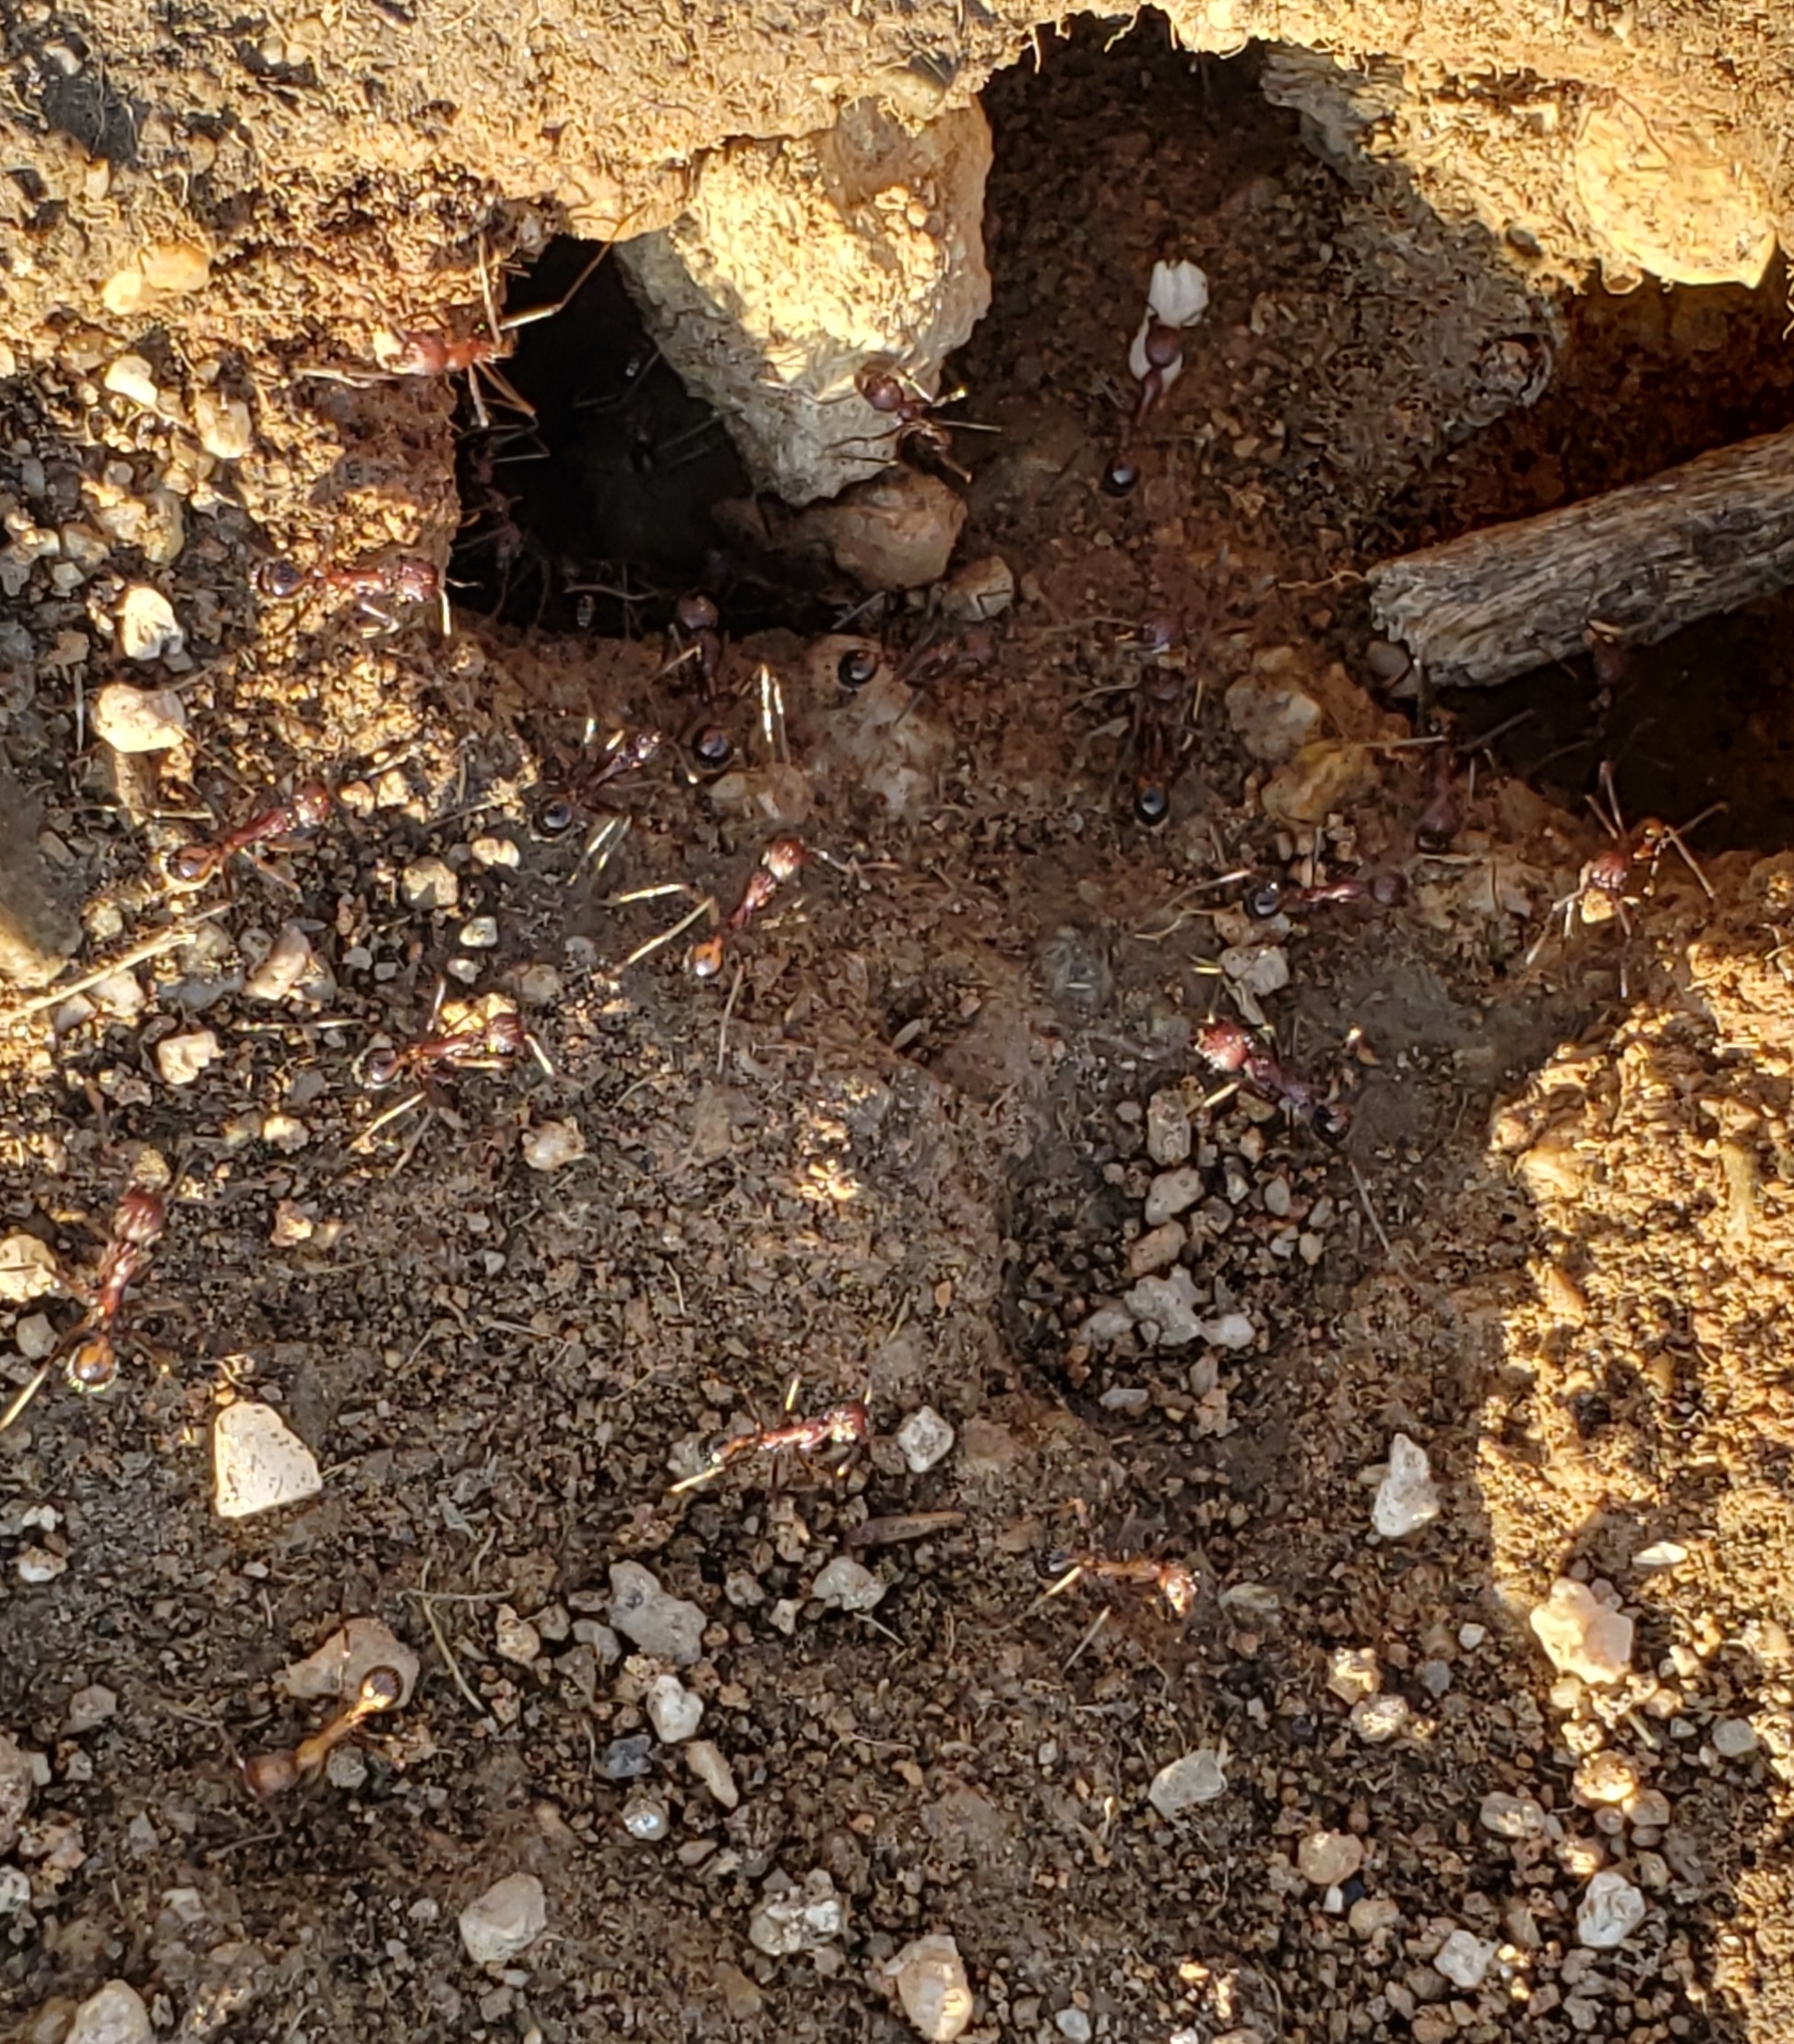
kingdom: Animalia
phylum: Arthropoda
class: Insecta
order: Hymenoptera
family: Formicidae
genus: Novomessor
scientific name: Novomessor albisetosa
